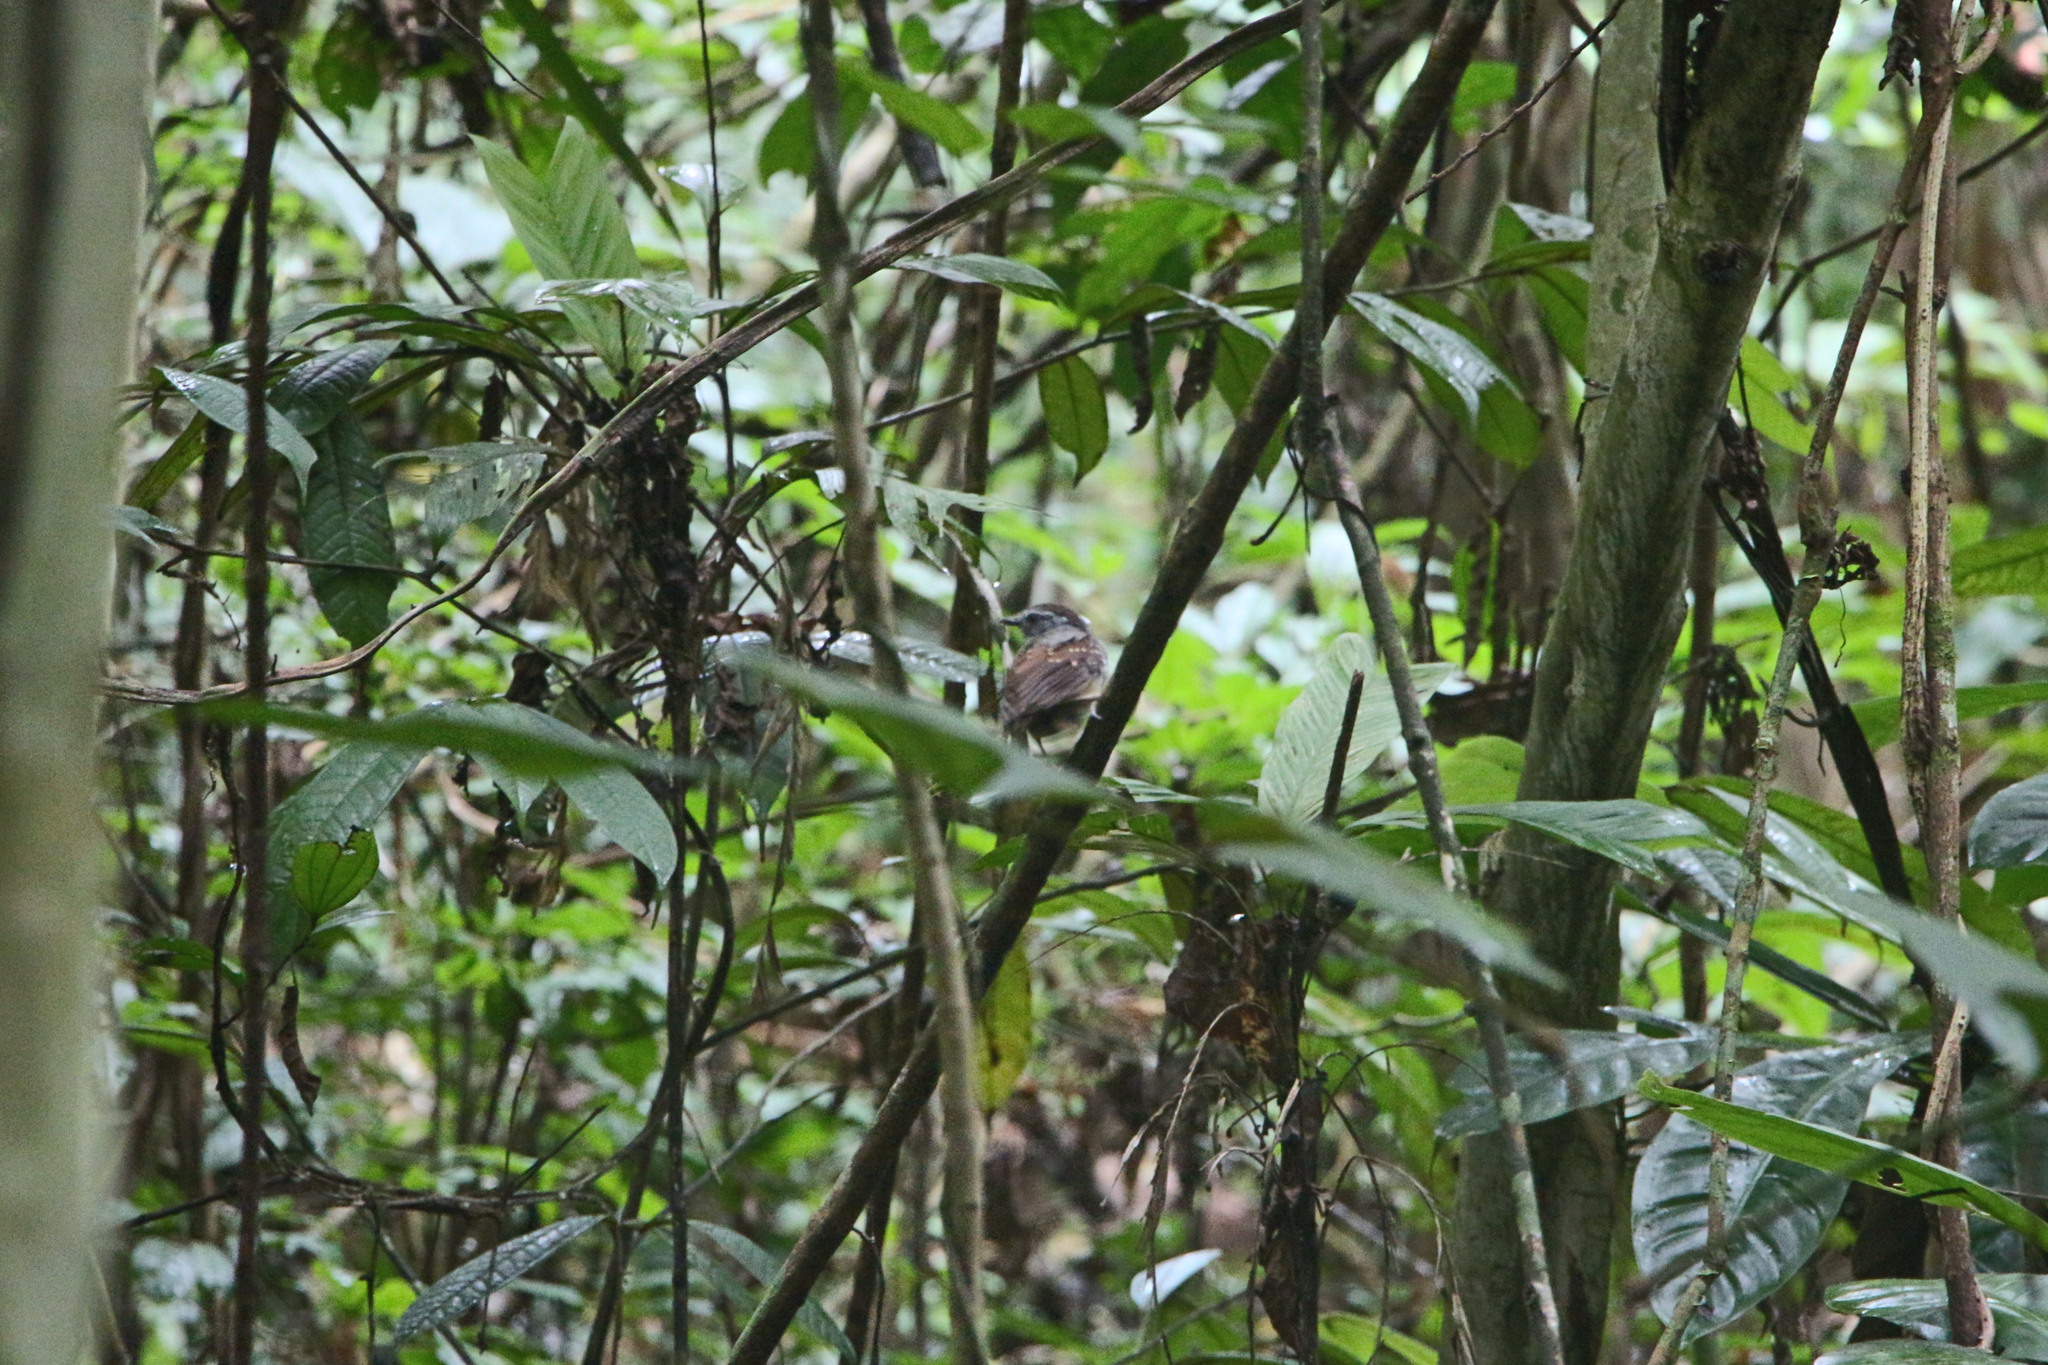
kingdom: Animalia
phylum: Chordata
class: Aves
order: Passeriformes
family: Conopophagidae
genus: Conopophaga
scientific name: Conopophaga peruviana
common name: Ash-throated gnateater
